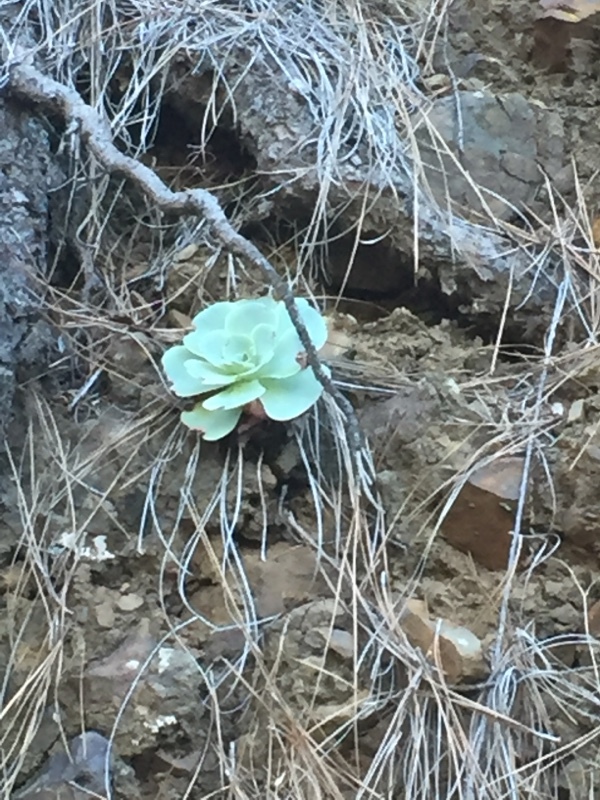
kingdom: Plantae
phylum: Tracheophyta
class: Magnoliopsida
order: Saxifragales
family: Crassulaceae
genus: Aeonium
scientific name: Aeonium aureum
